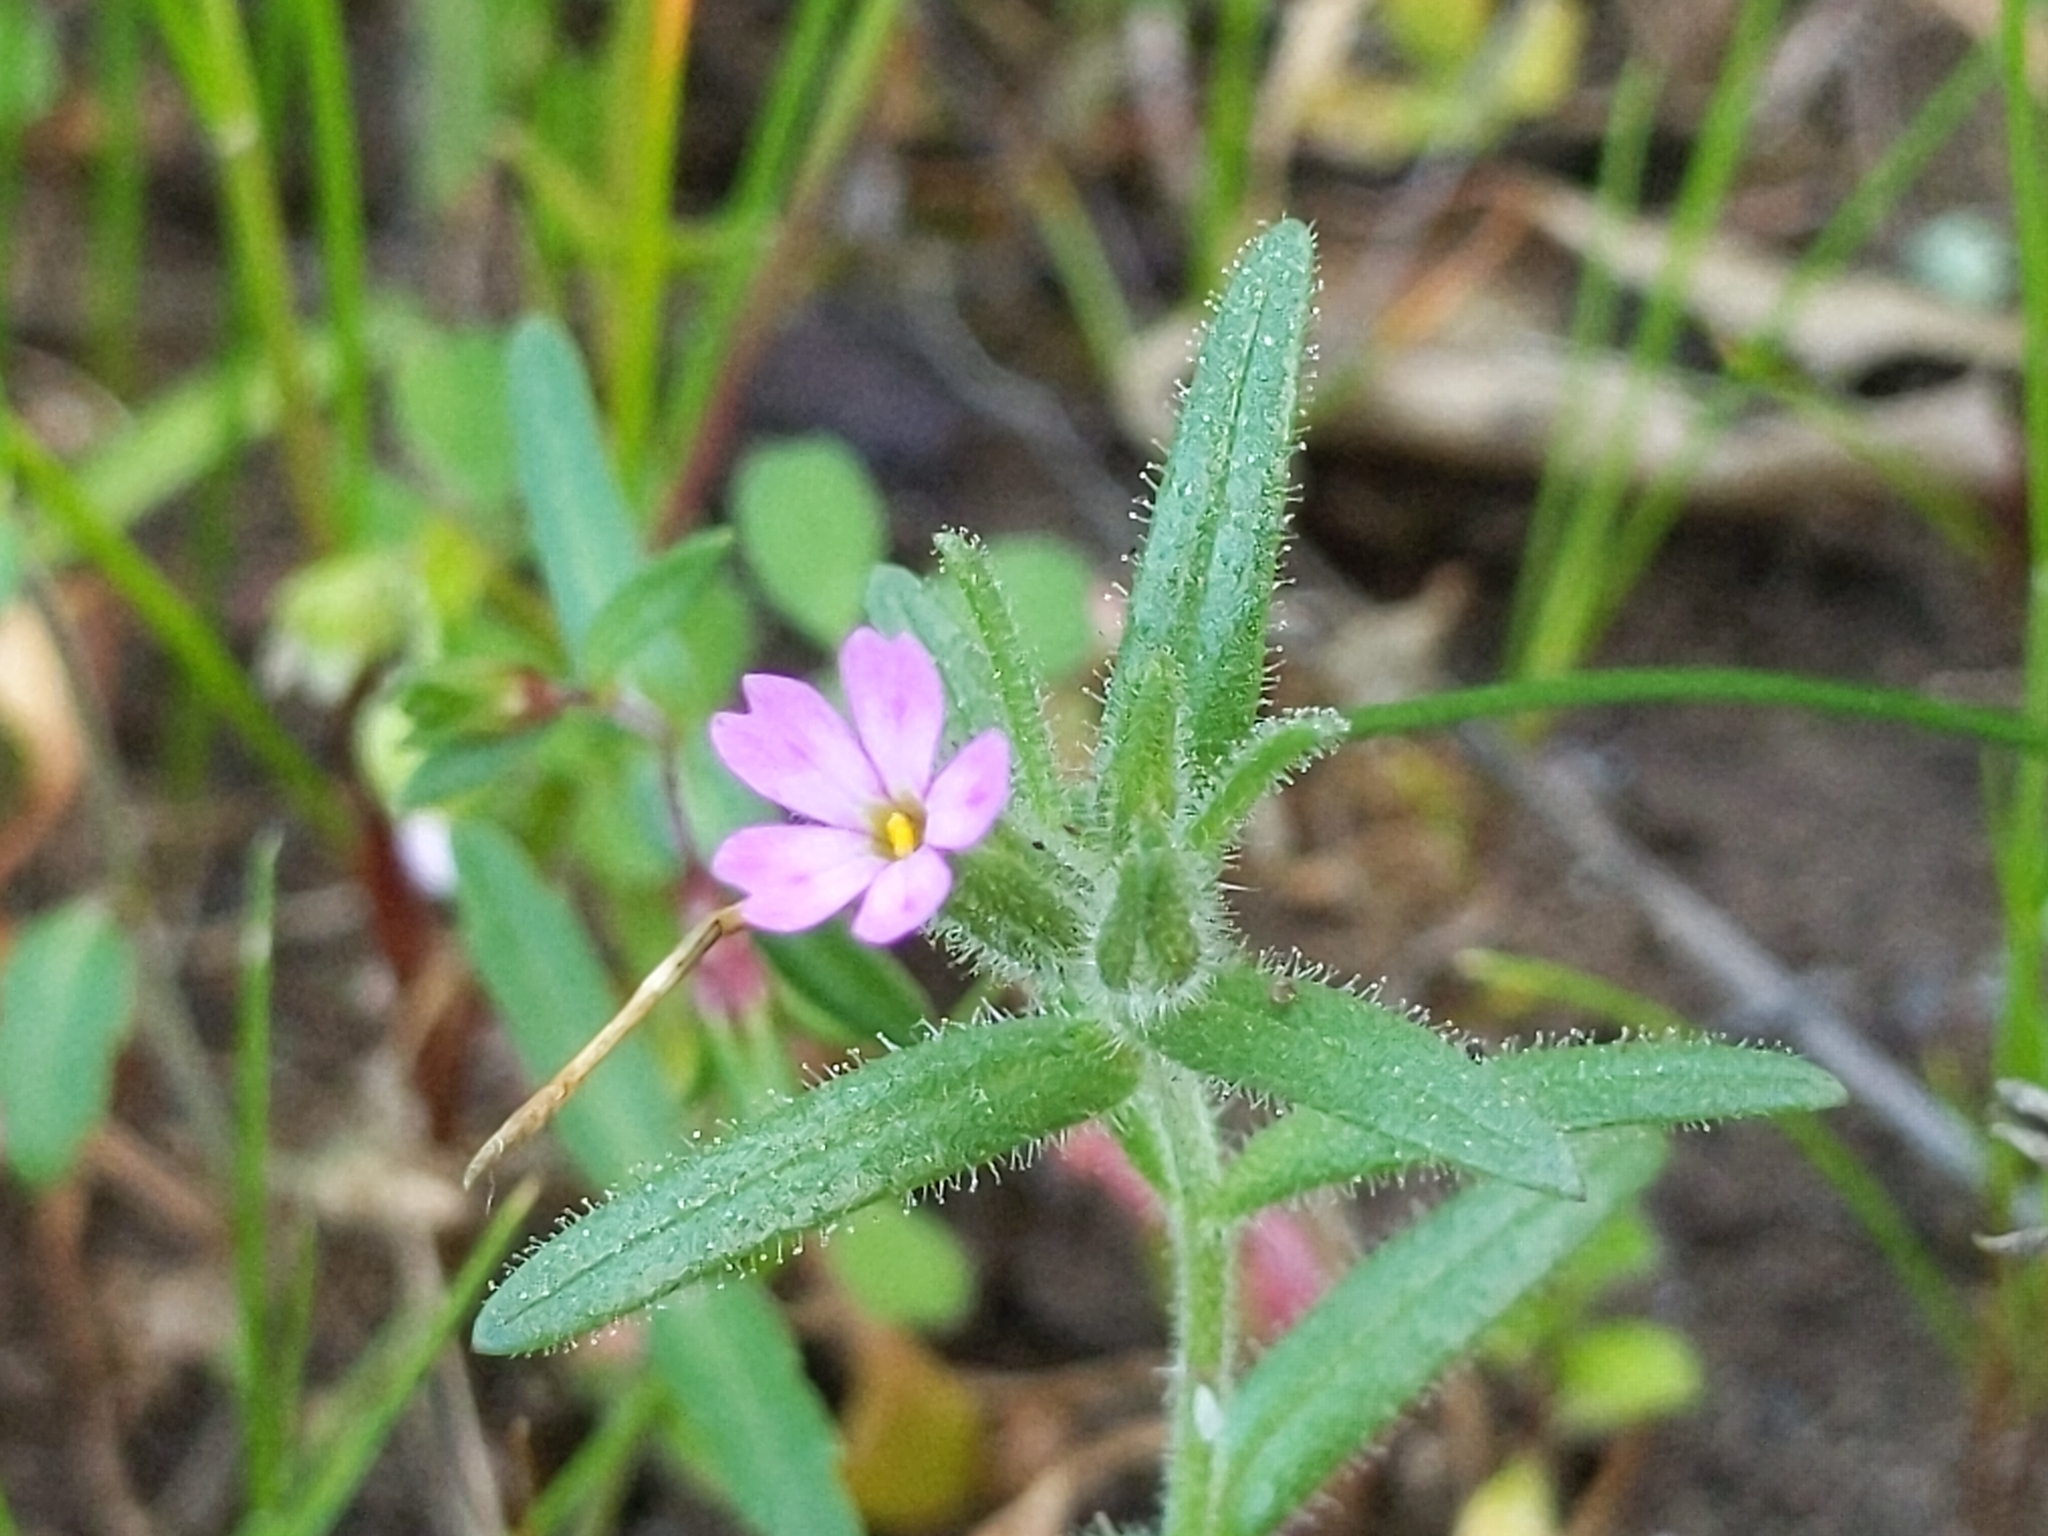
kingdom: Plantae
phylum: Tracheophyta
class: Magnoliopsida
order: Ericales
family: Polemoniaceae
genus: Phlox
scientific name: Phlox gracilis
